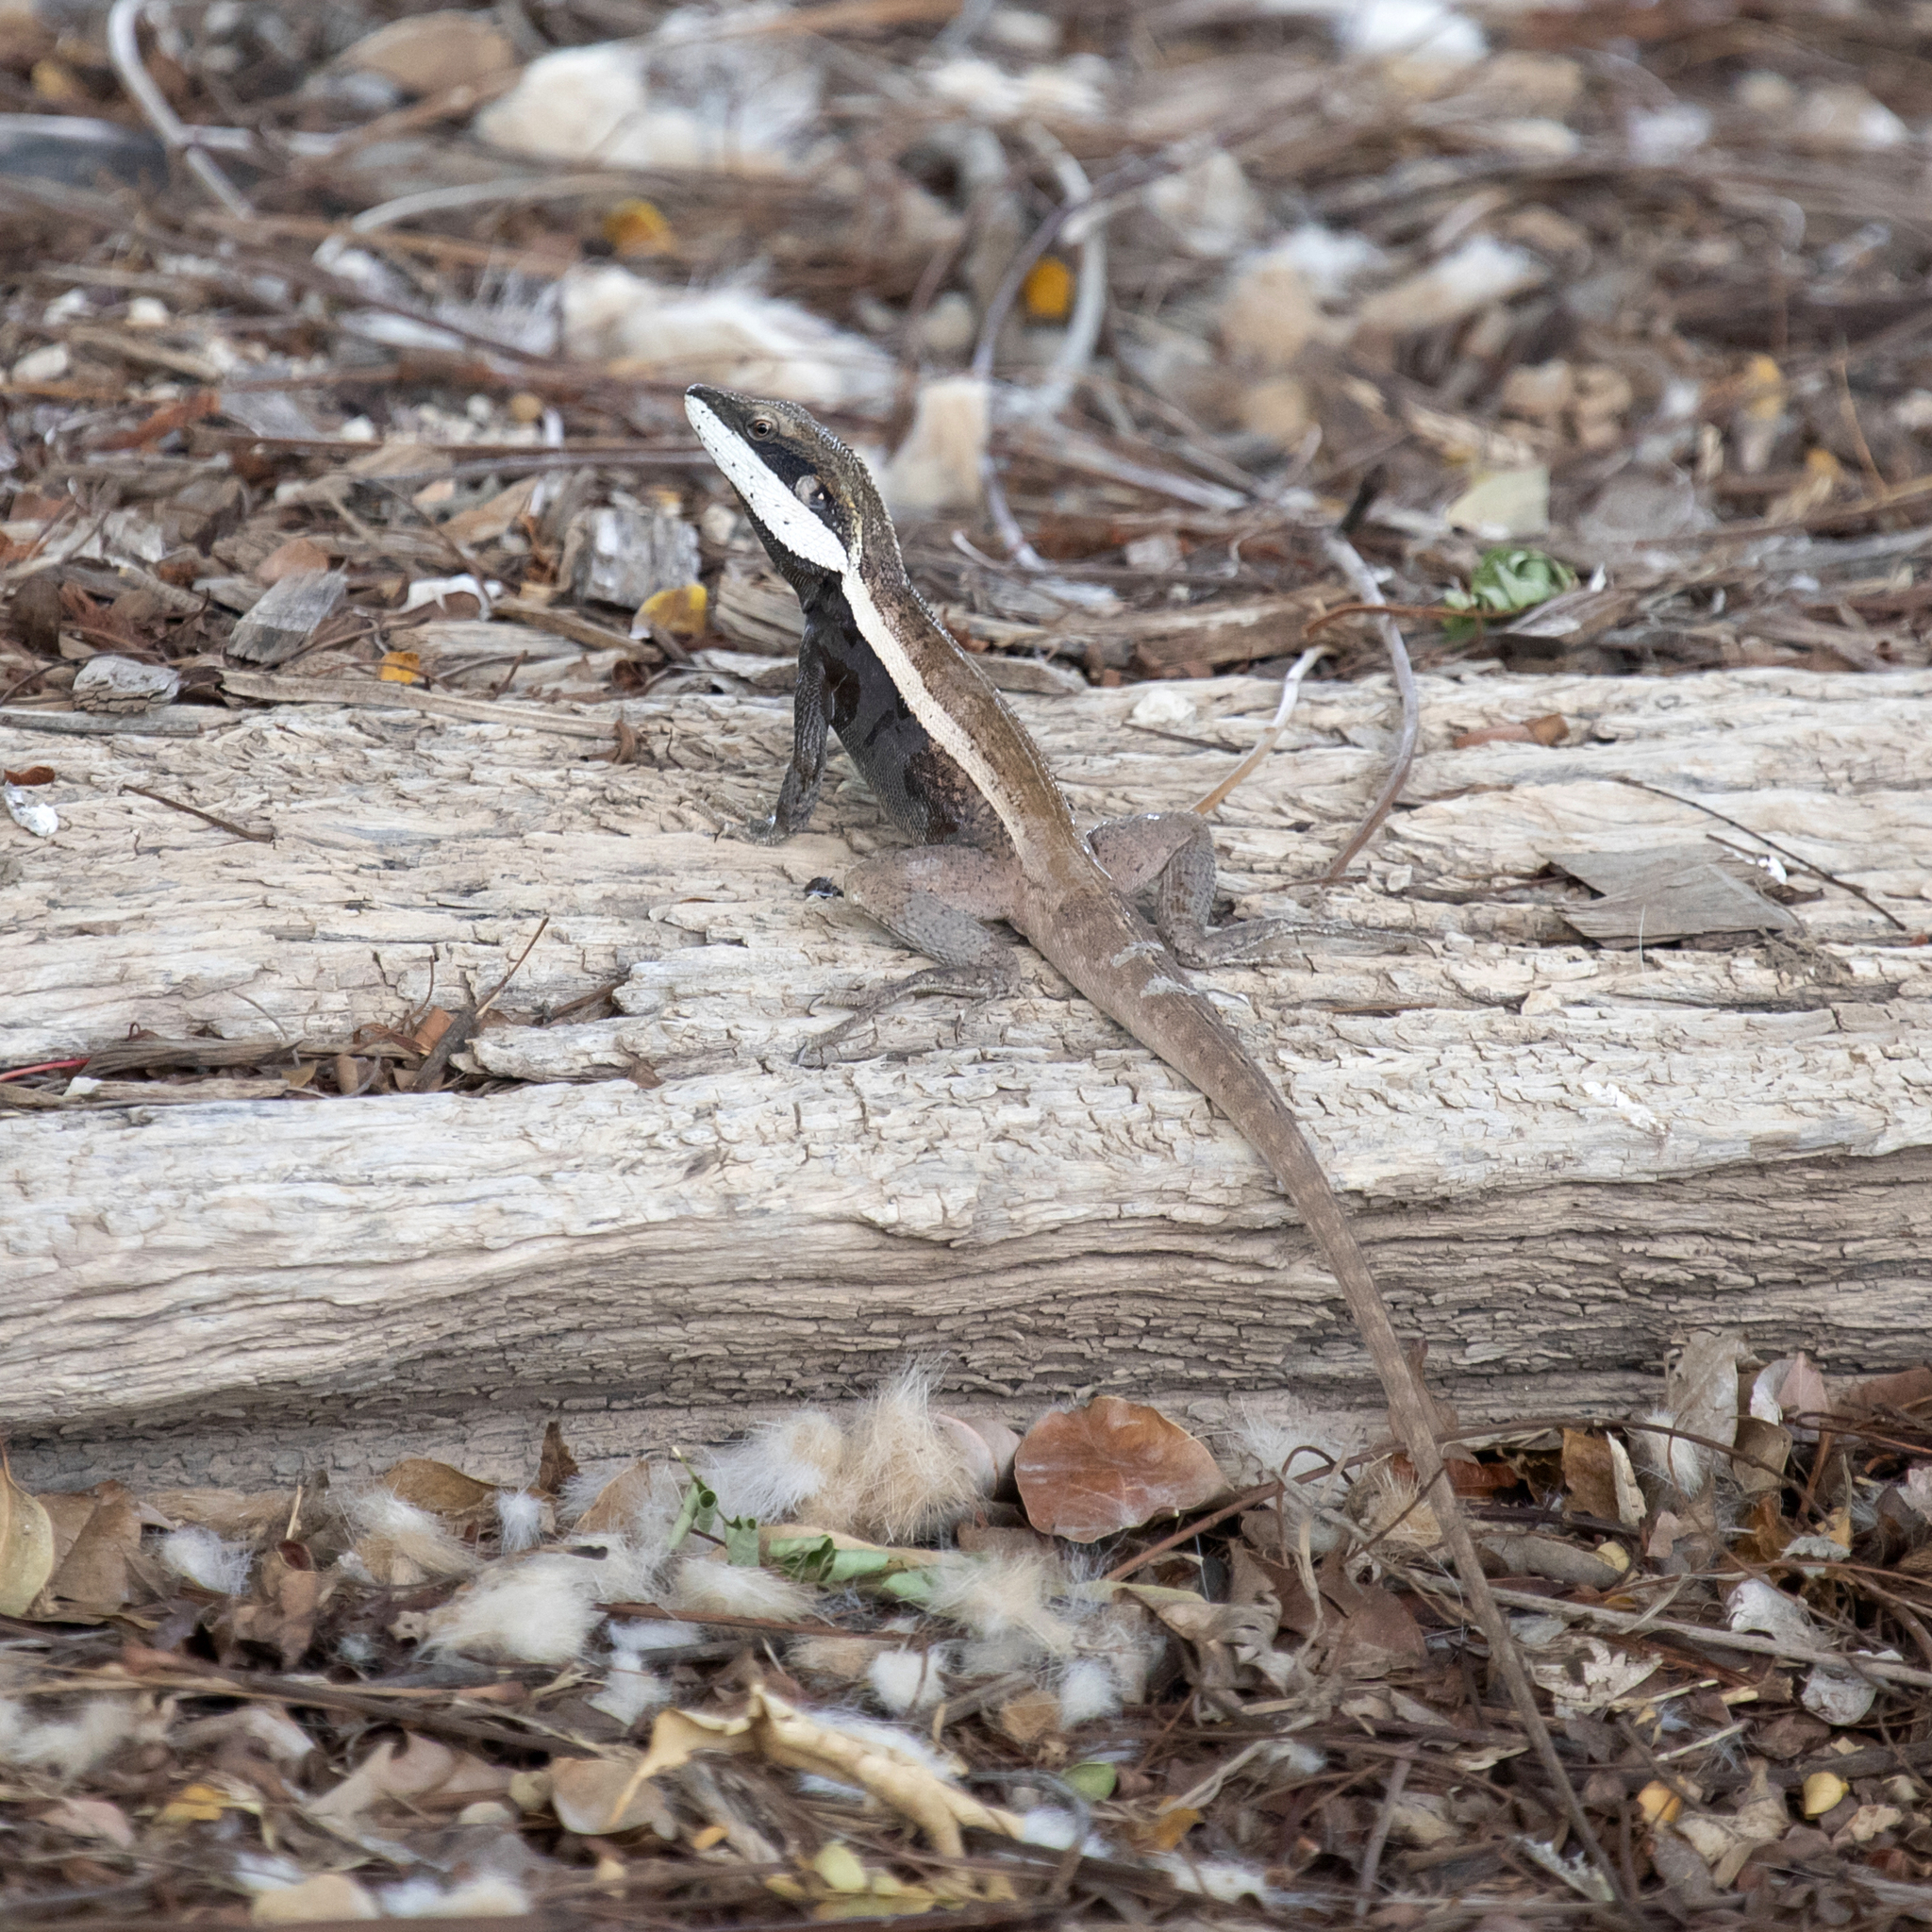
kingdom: Animalia
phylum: Chordata
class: Squamata
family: Agamidae
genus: Lophognathus
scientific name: Lophognathus horneri
